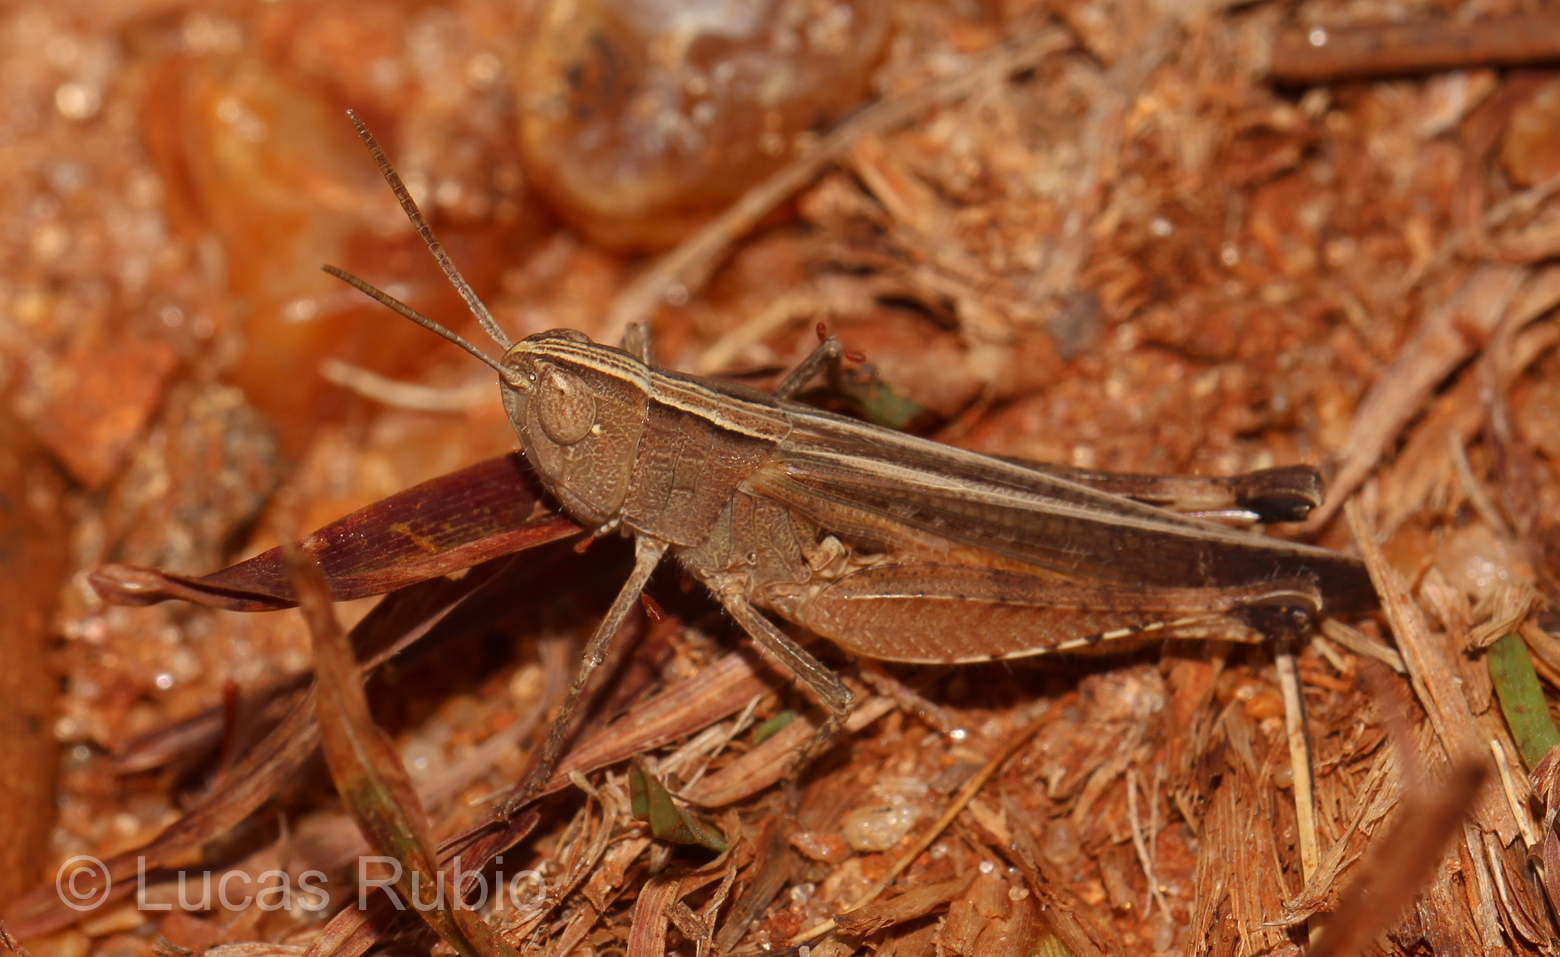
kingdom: Animalia
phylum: Arthropoda
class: Insecta
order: Orthoptera
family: Acrididae
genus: Euplectrotettix
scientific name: Euplectrotettix ferrugineus
